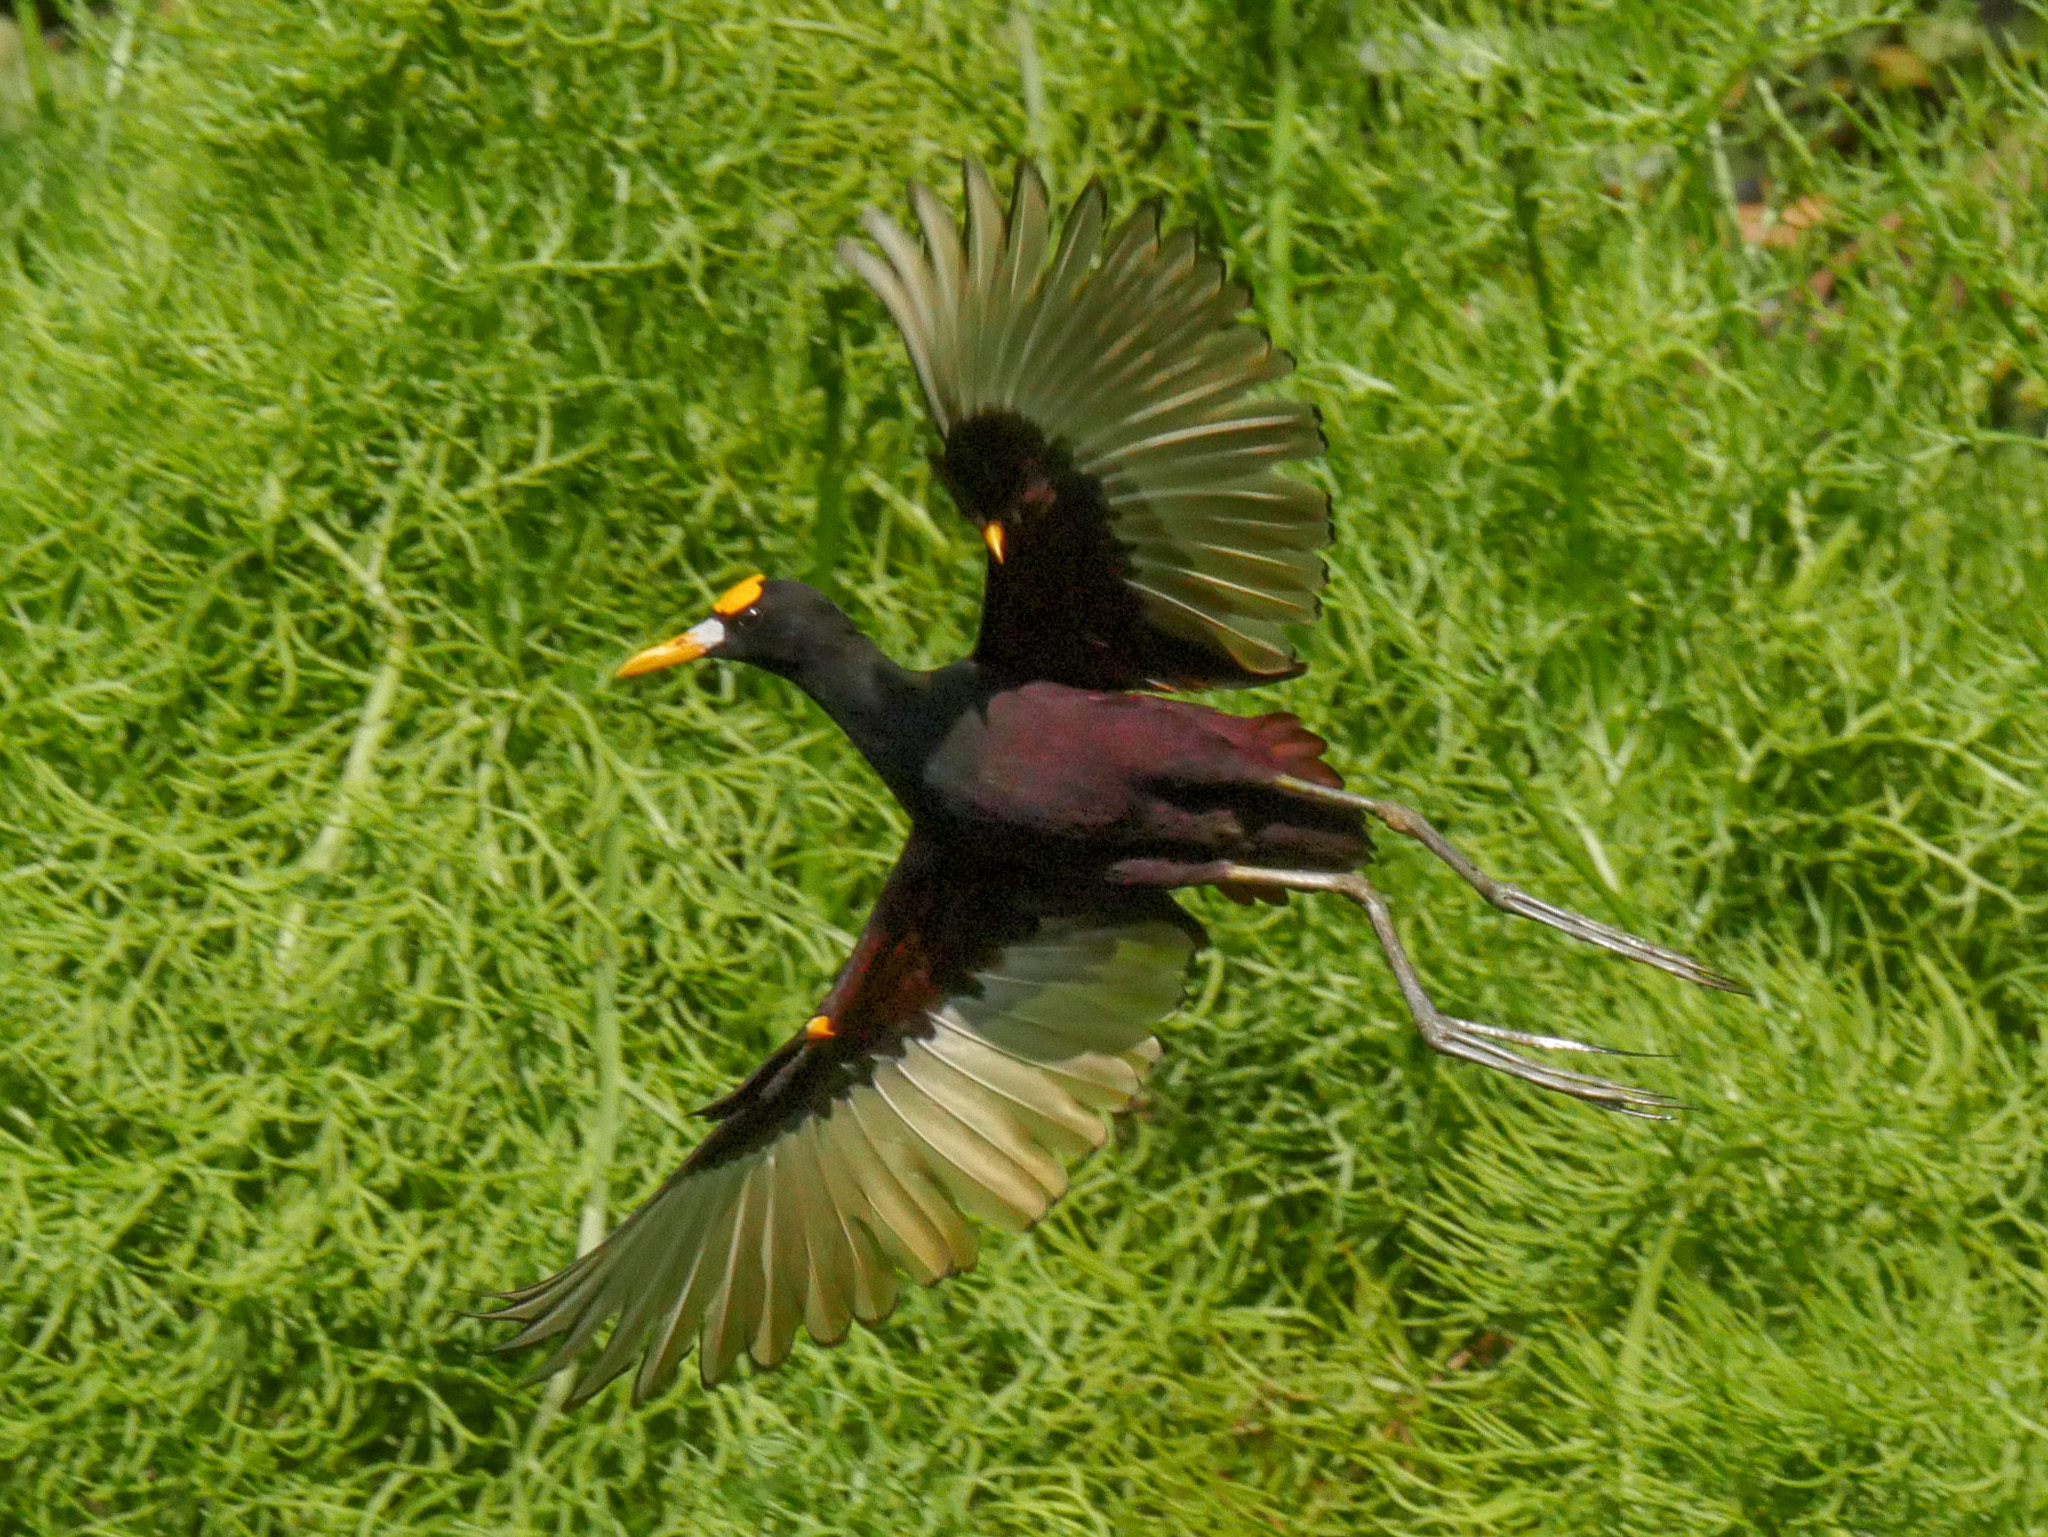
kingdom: Animalia
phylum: Chordata
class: Aves
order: Charadriiformes
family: Jacanidae
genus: Jacana
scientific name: Jacana spinosa
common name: Northern jacana
